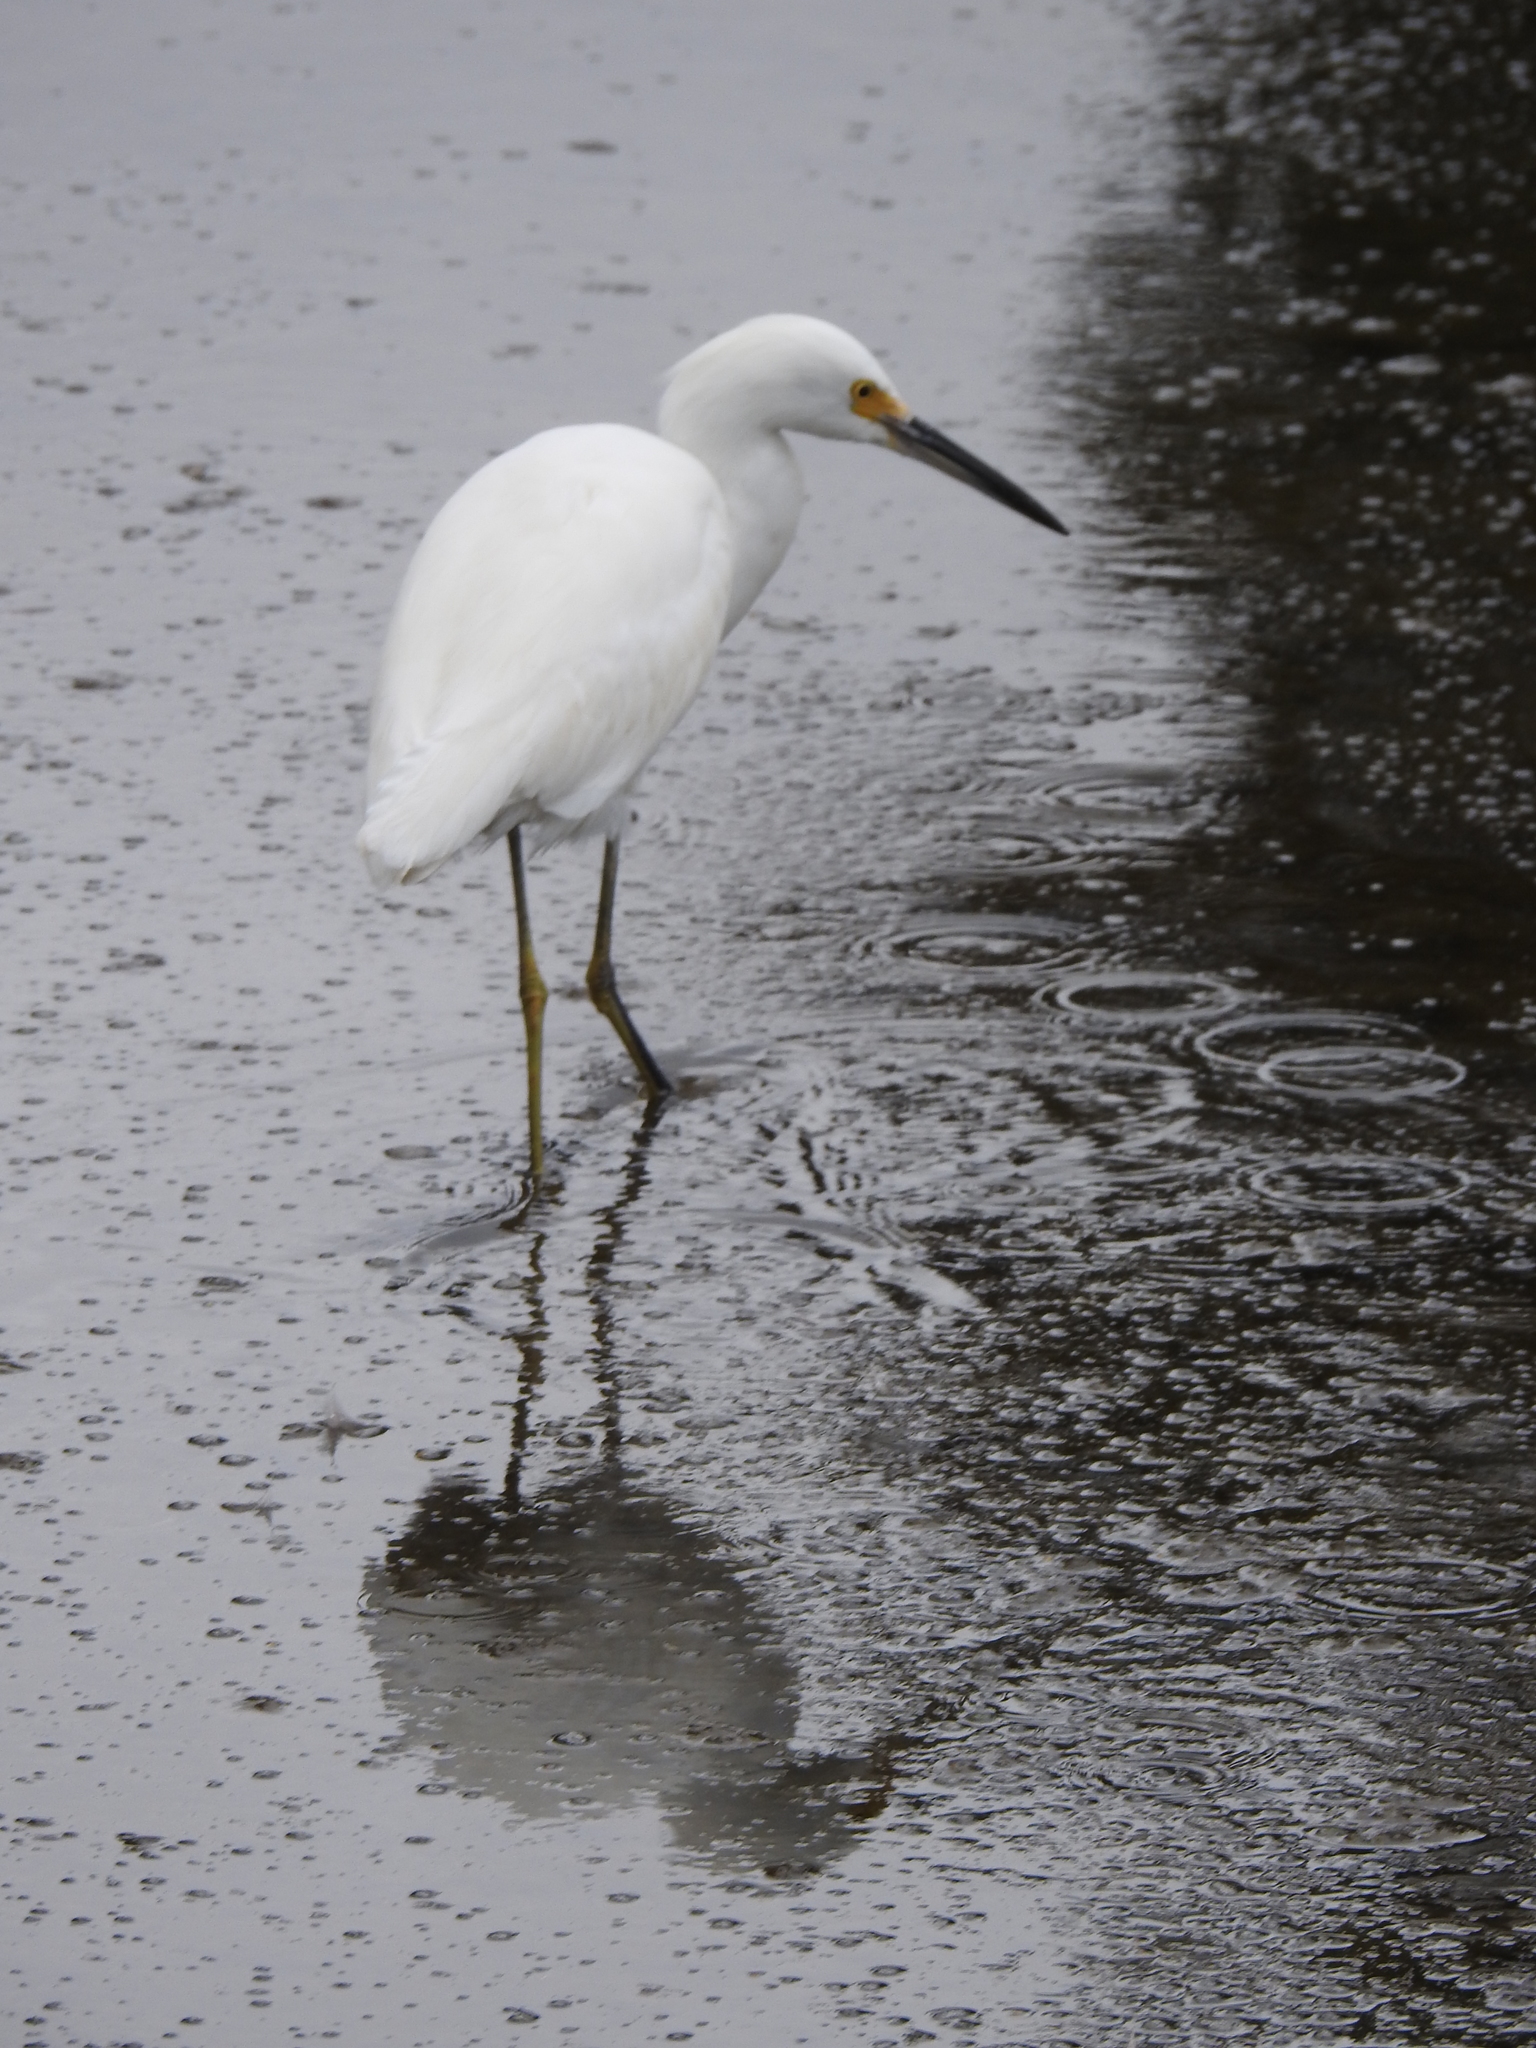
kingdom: Animalia
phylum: Chordata
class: Aves
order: Pelecaniformes
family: Ardeidae
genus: Egretta
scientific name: Egretta thula
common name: Snowy egret
